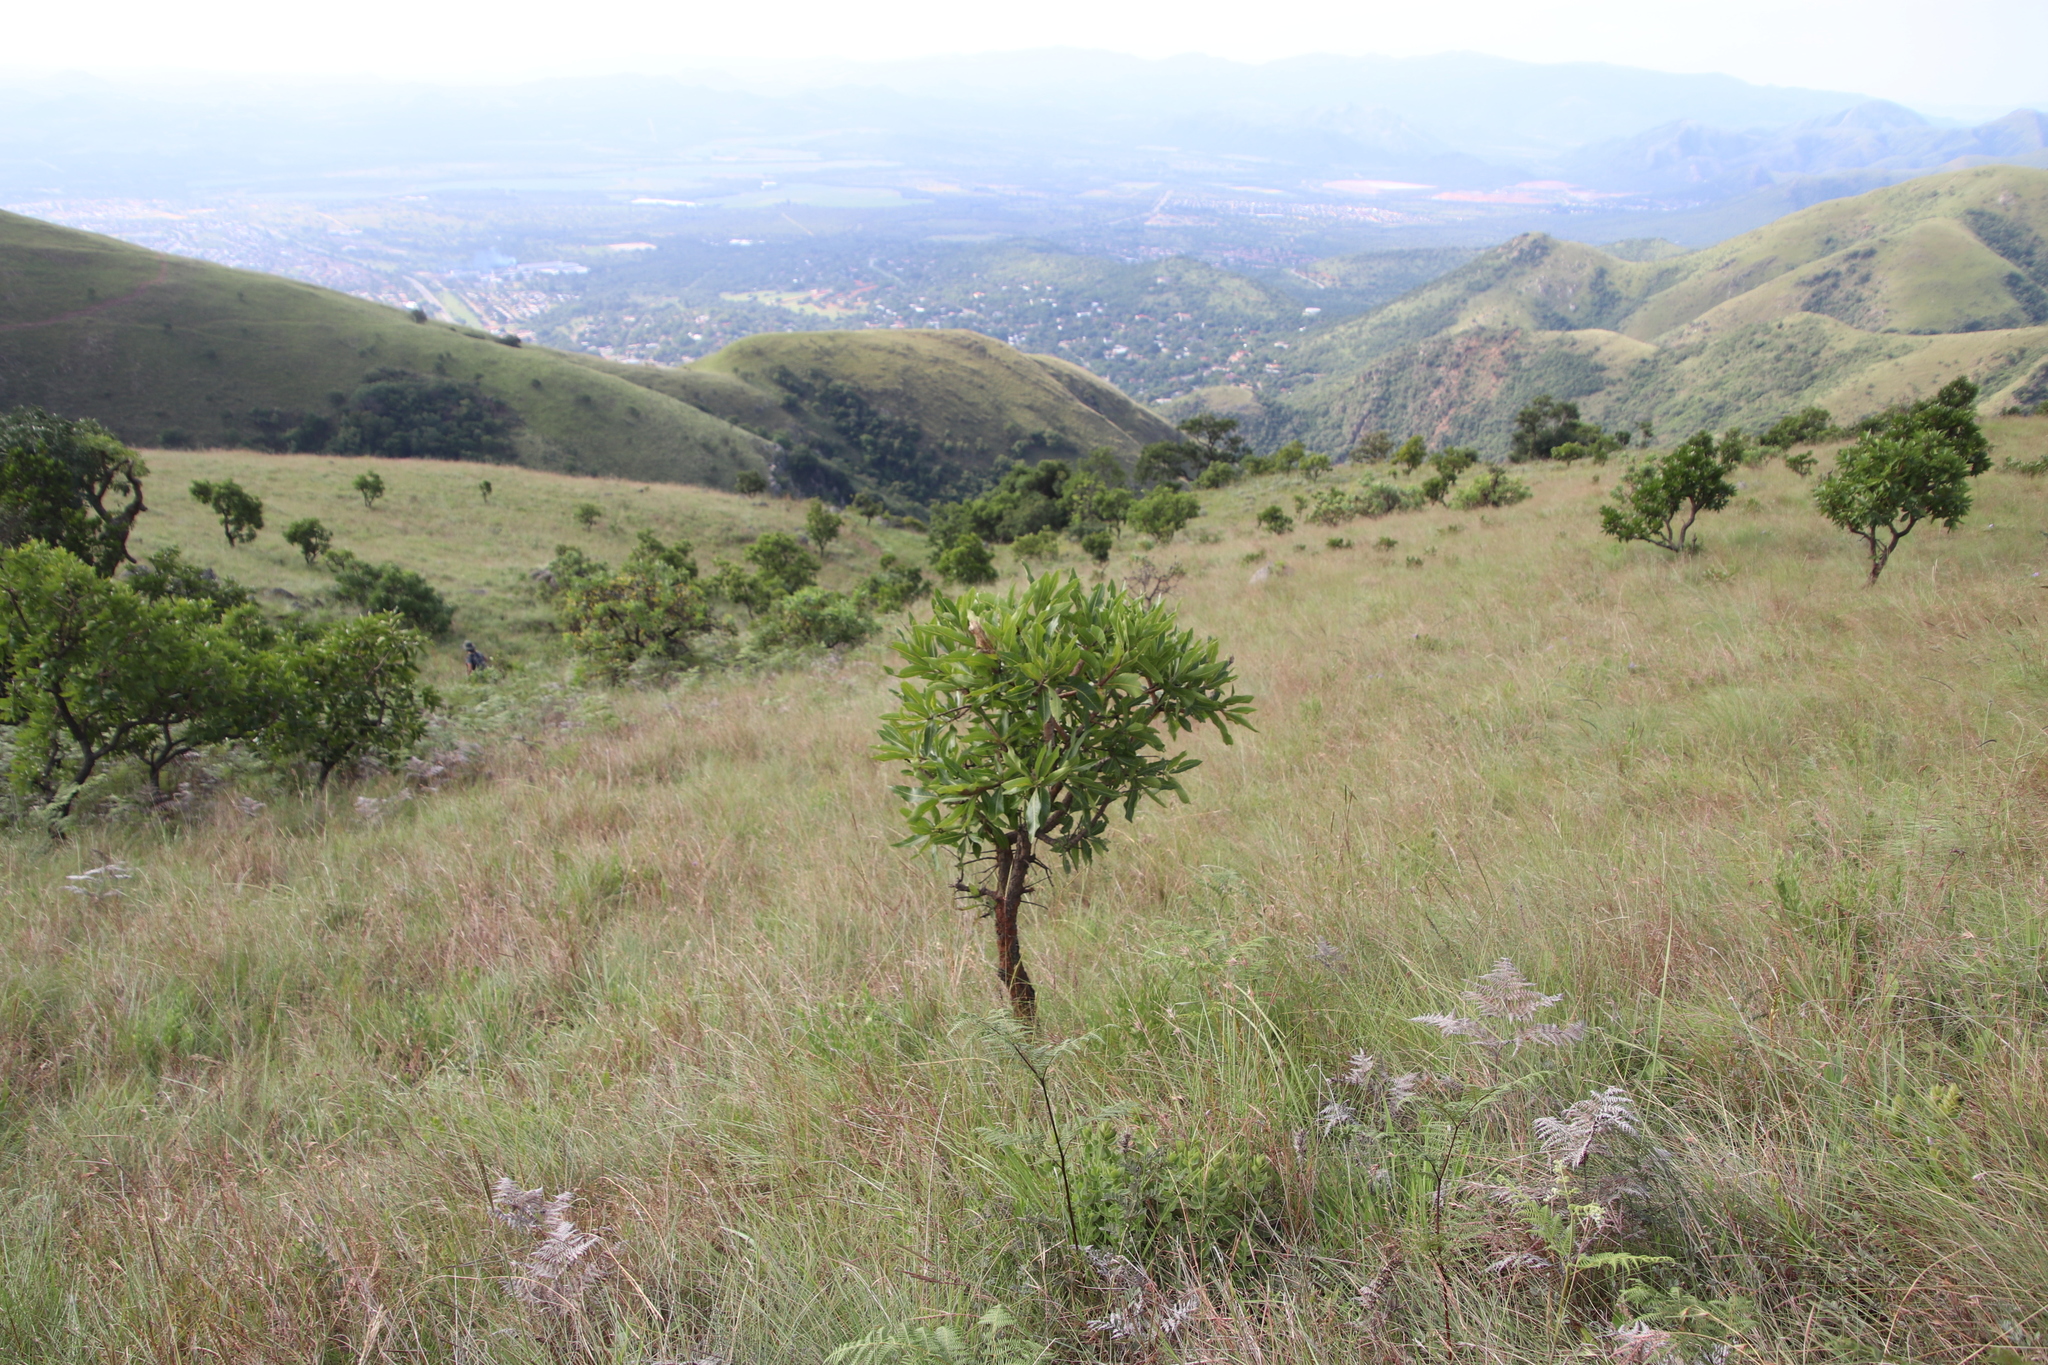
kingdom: Plantae
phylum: Tracheophyta
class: Magnoliopsida
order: Proteales
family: Proteaceae
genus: Faurea
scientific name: Faurea rochetiana
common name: Broad-leaved beech
